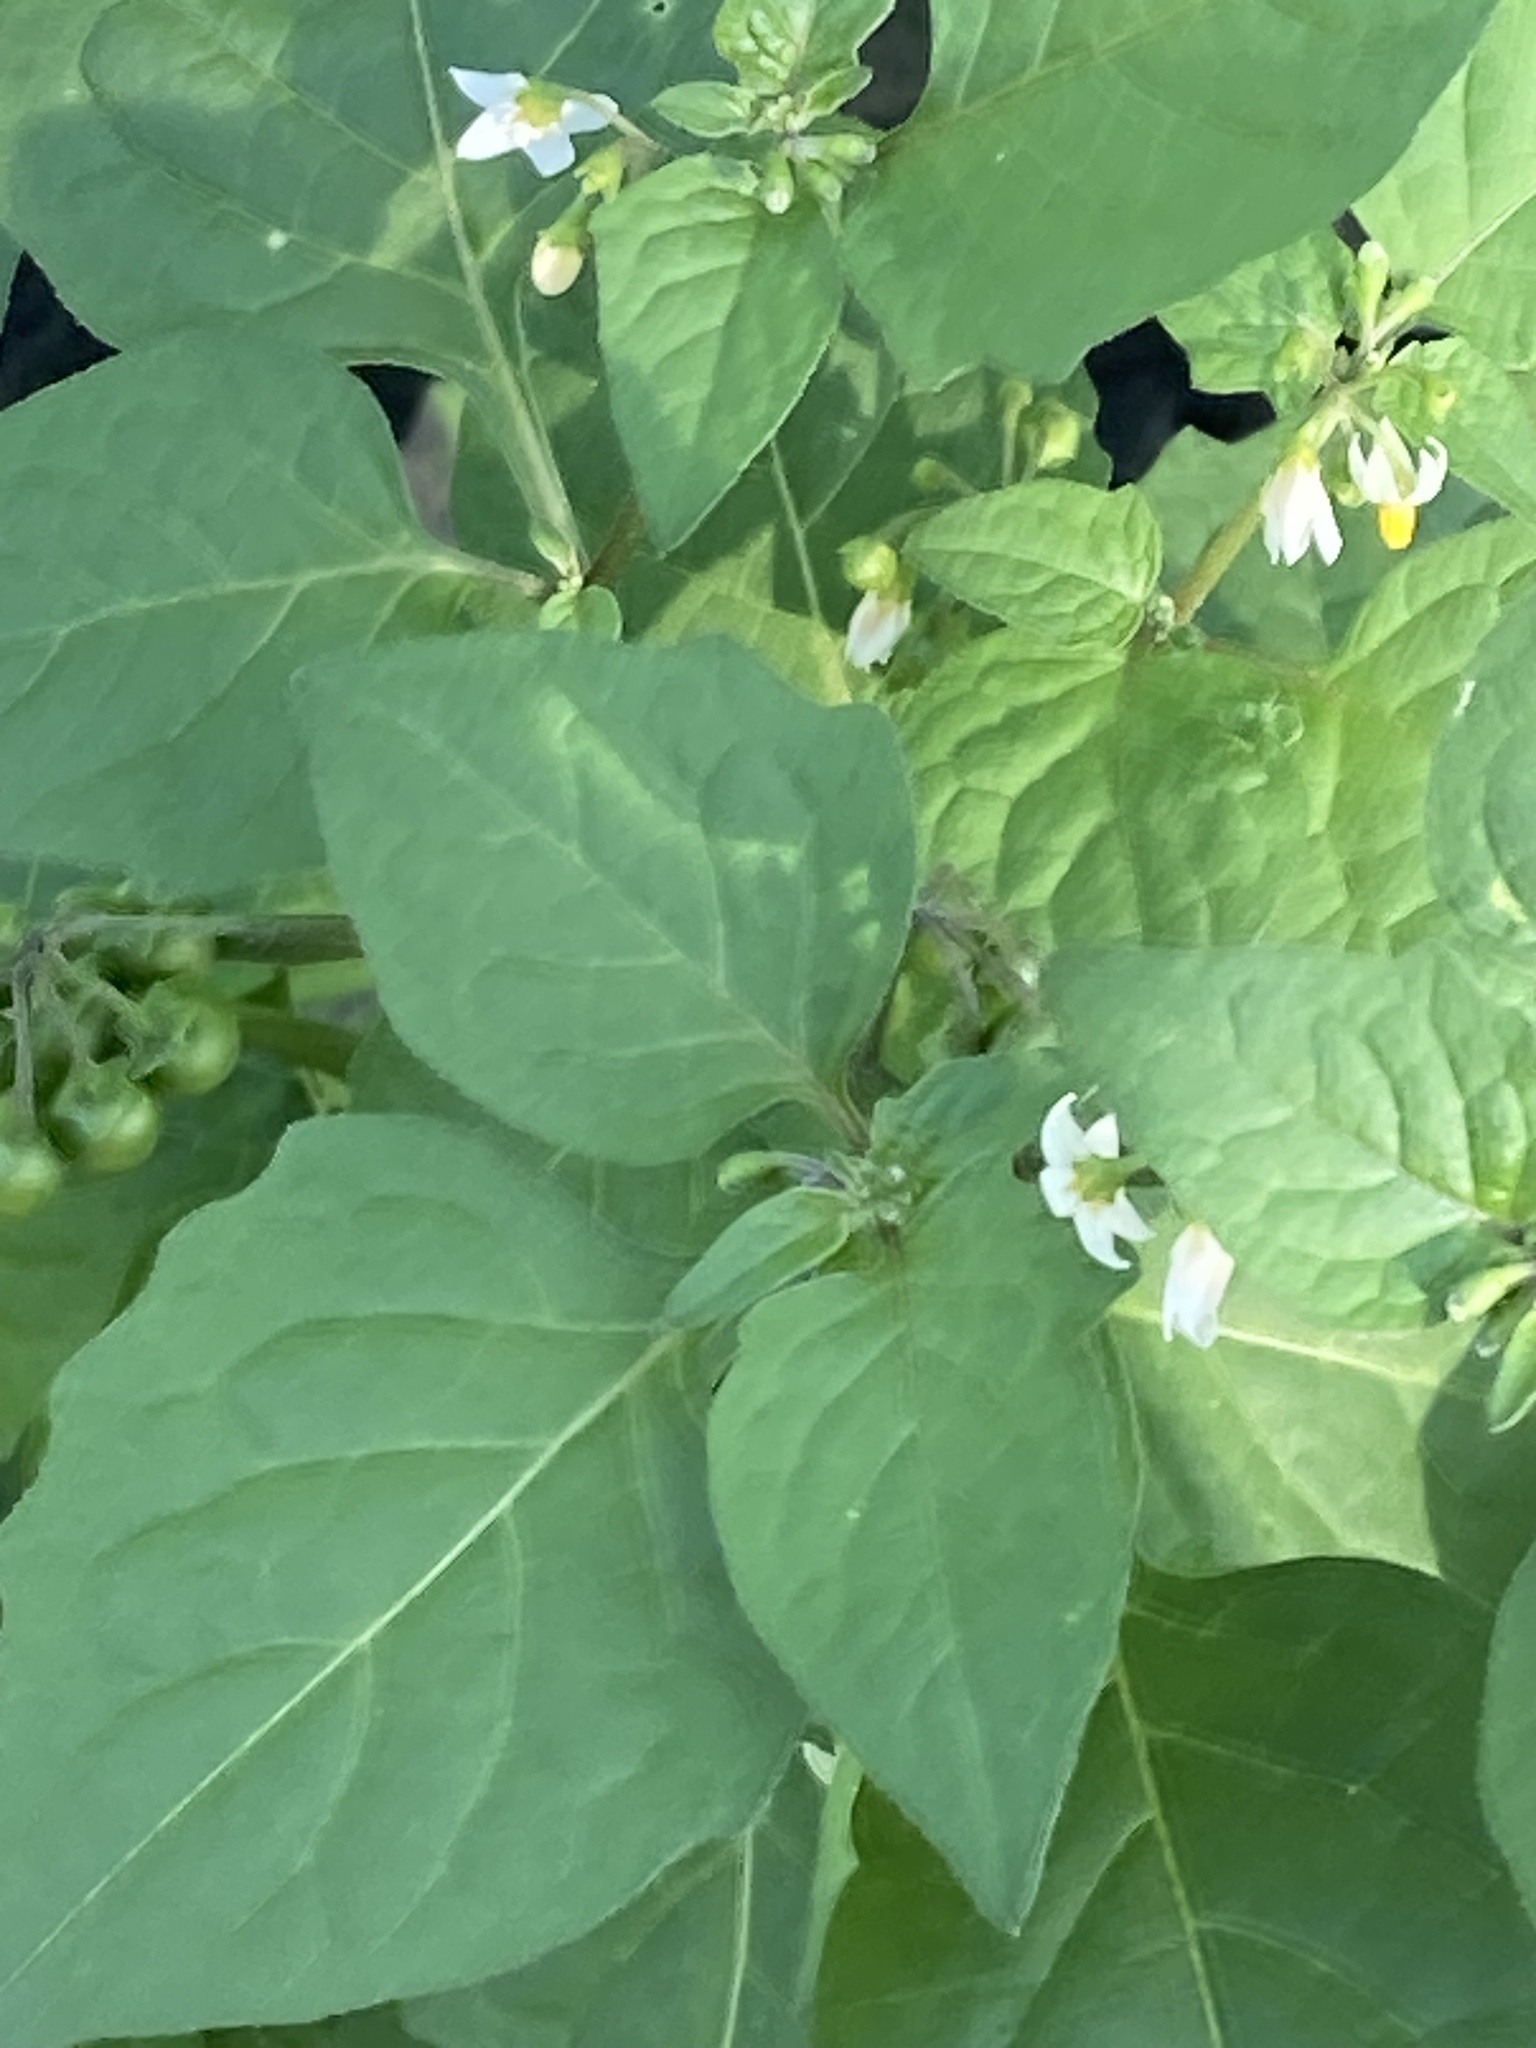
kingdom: Plantae
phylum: Tracheophyta
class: Magnoliopsida
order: Solanales
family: Solanaceae
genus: Solanum
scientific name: Solanum nigrum
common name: Black nightshade
